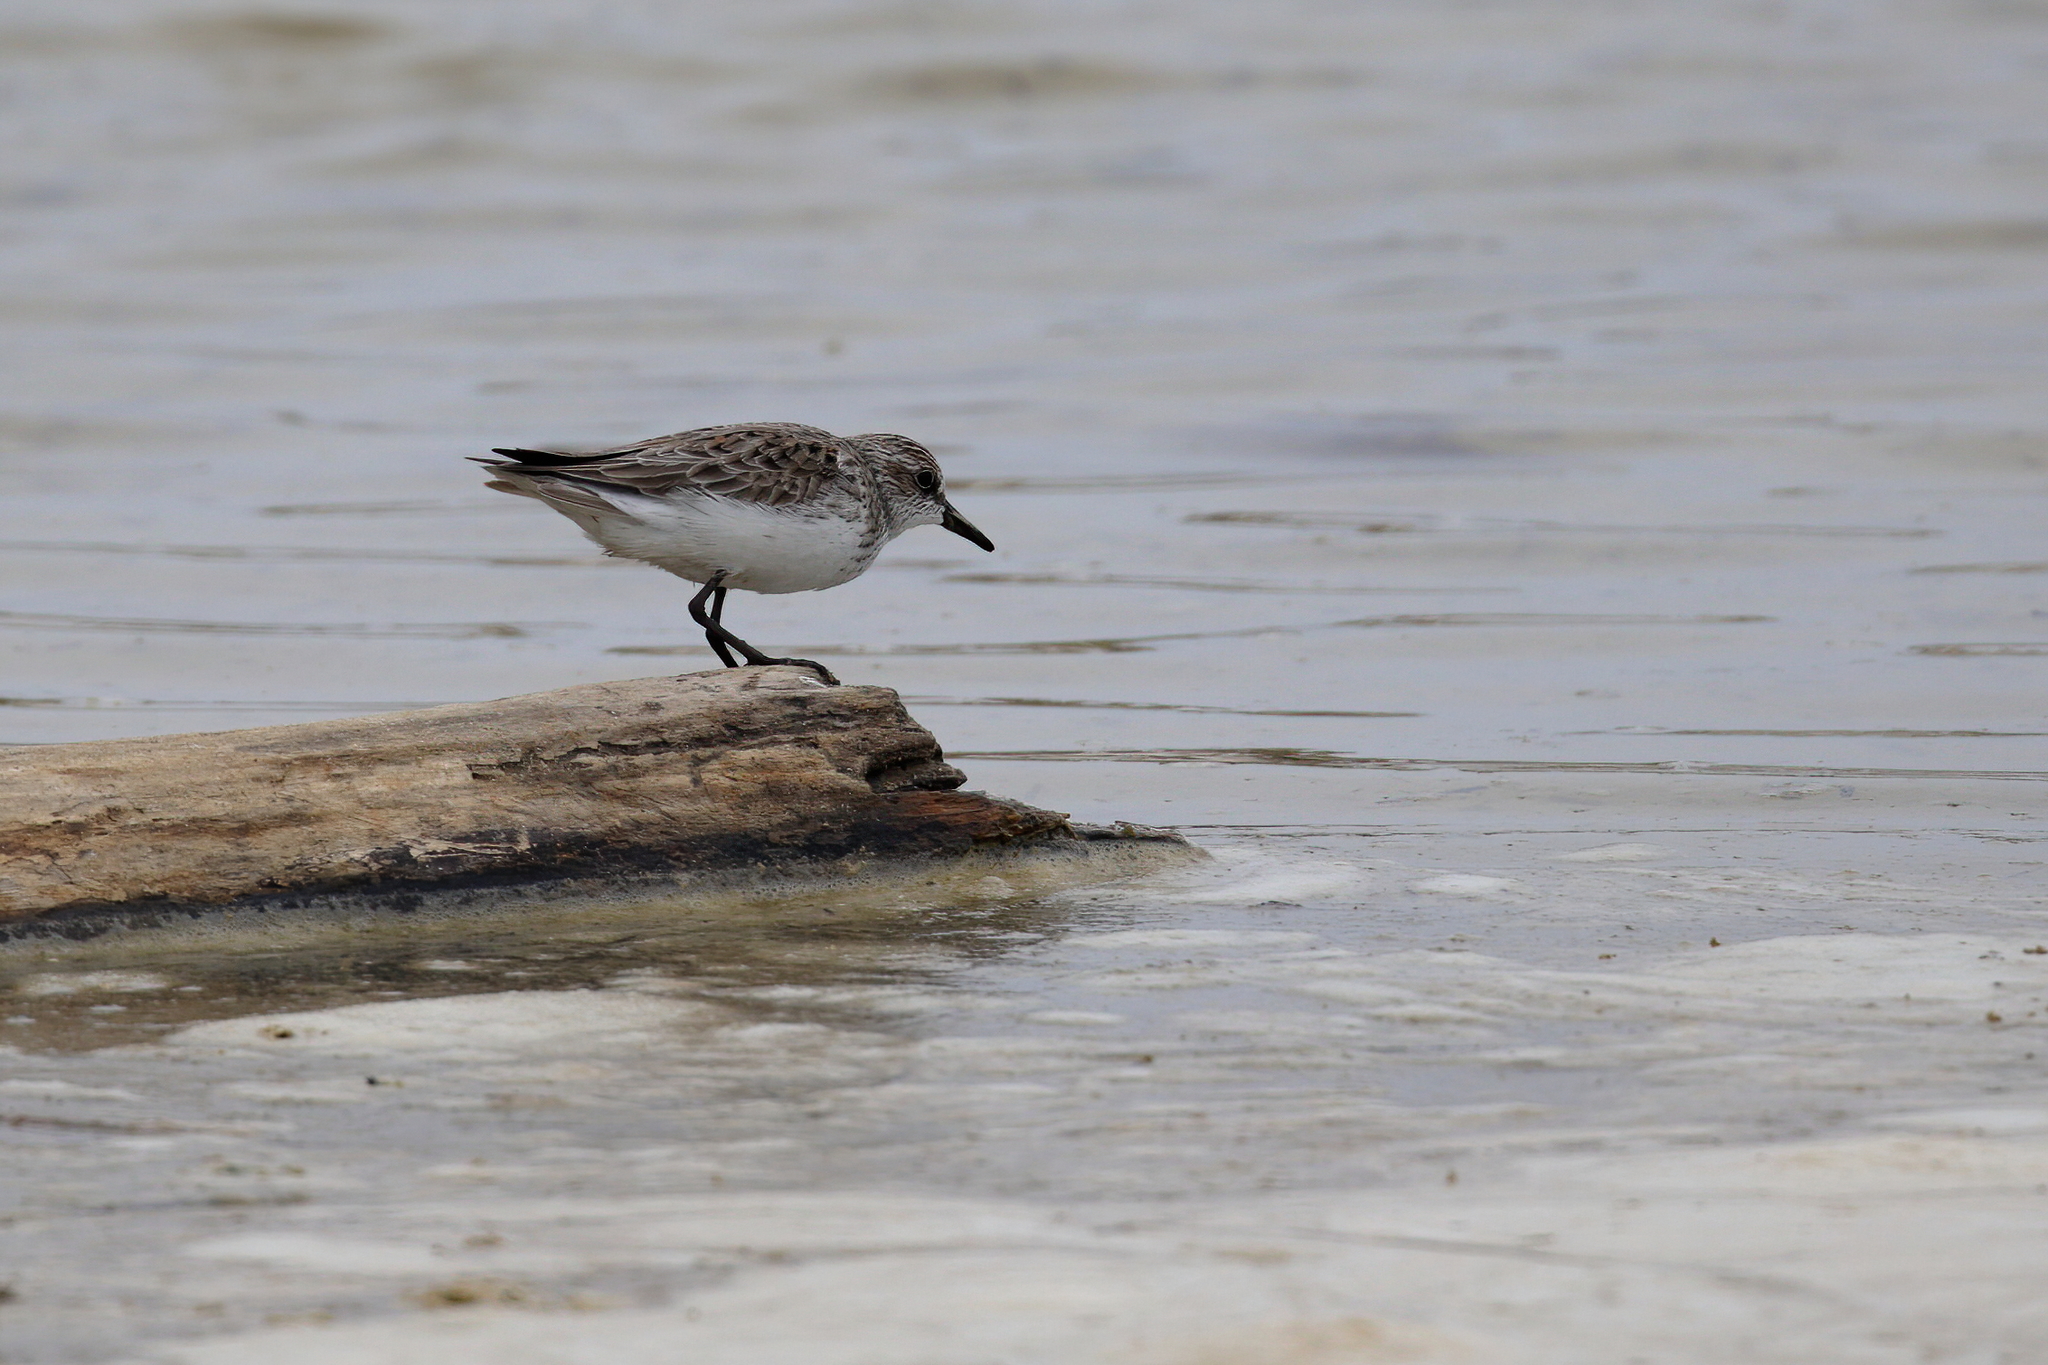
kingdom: Animalia
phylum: Chordata
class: Aves
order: Charadriiformes
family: Scolopacidae
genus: Calidris
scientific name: Calidris pusilla
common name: Semipalmated sandpiper
